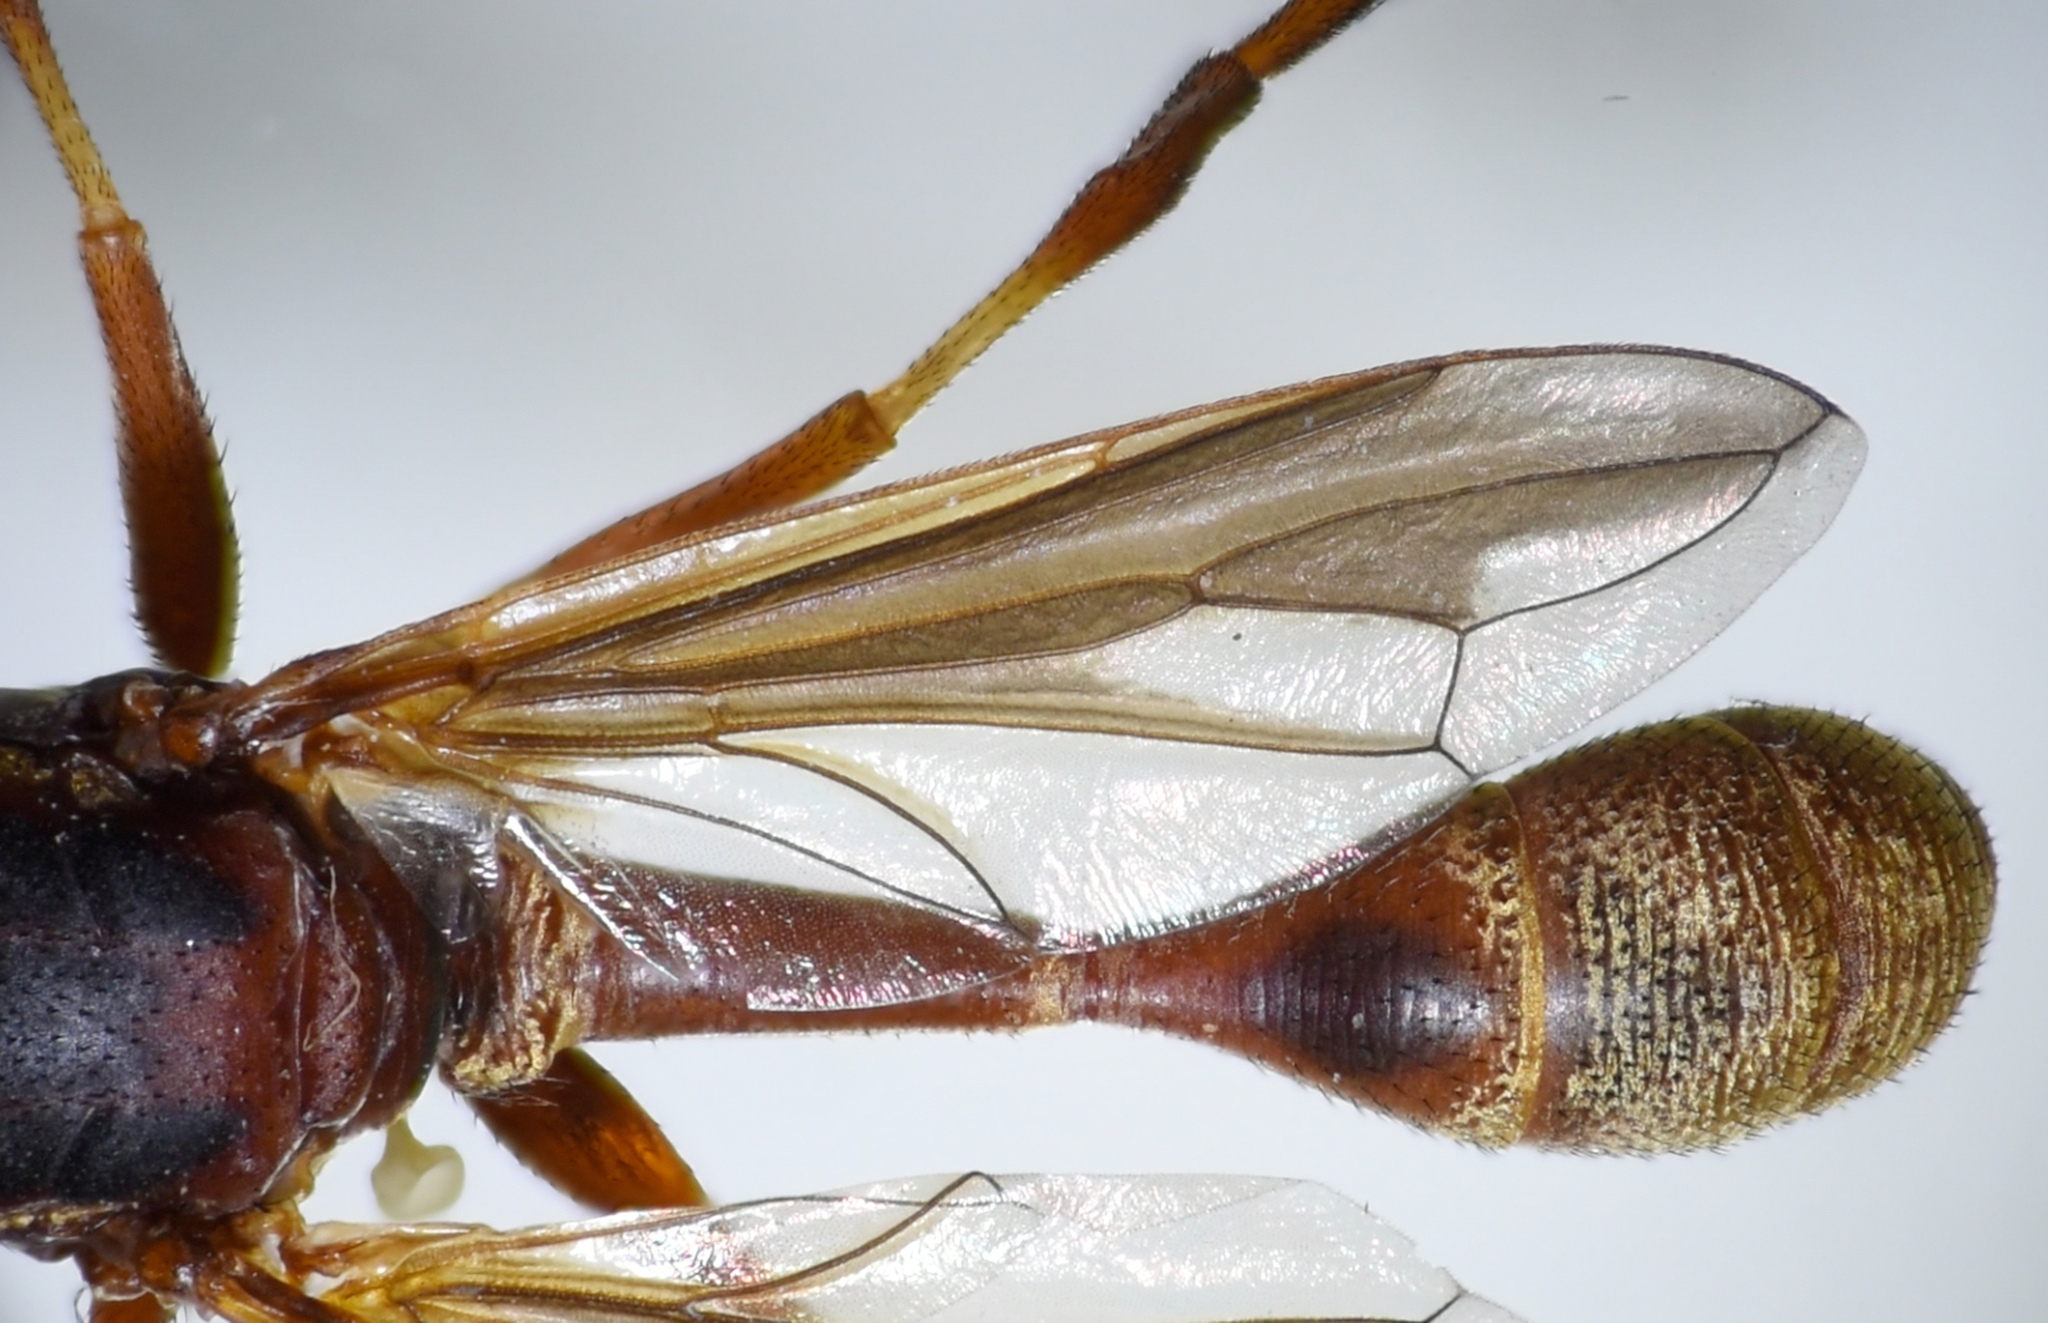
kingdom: Animalia
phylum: Arthropoda
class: Insecta
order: Diptera
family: Conopidae
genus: Physocephala
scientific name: Physocephala texana
